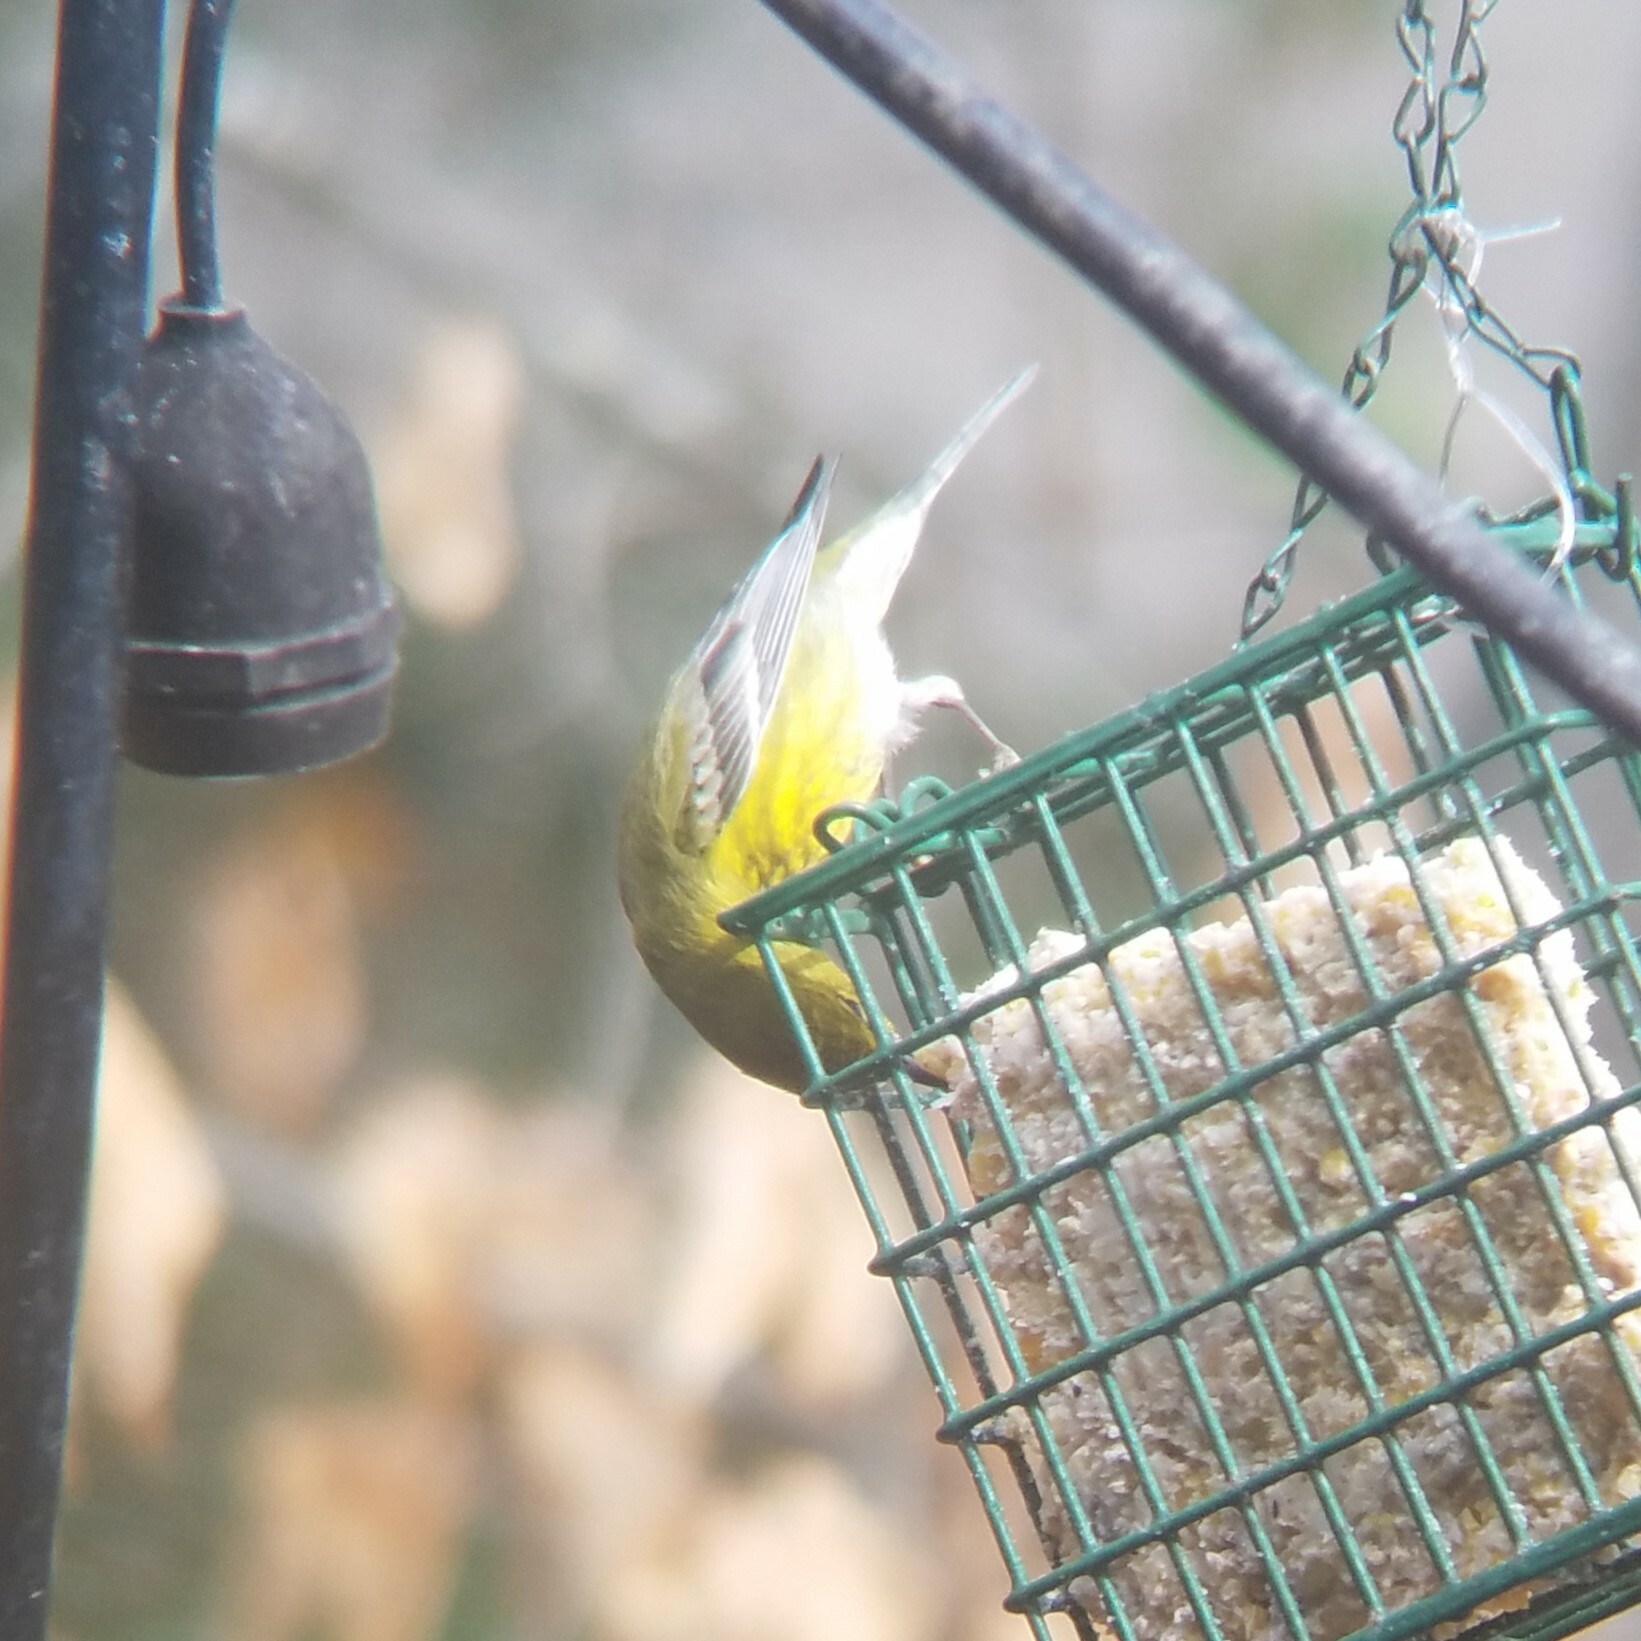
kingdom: Animalia
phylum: Chordata
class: Aves
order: Passeriformes
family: Parulidae
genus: Setophaga
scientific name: Setophaga pinus
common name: Pine warbler
